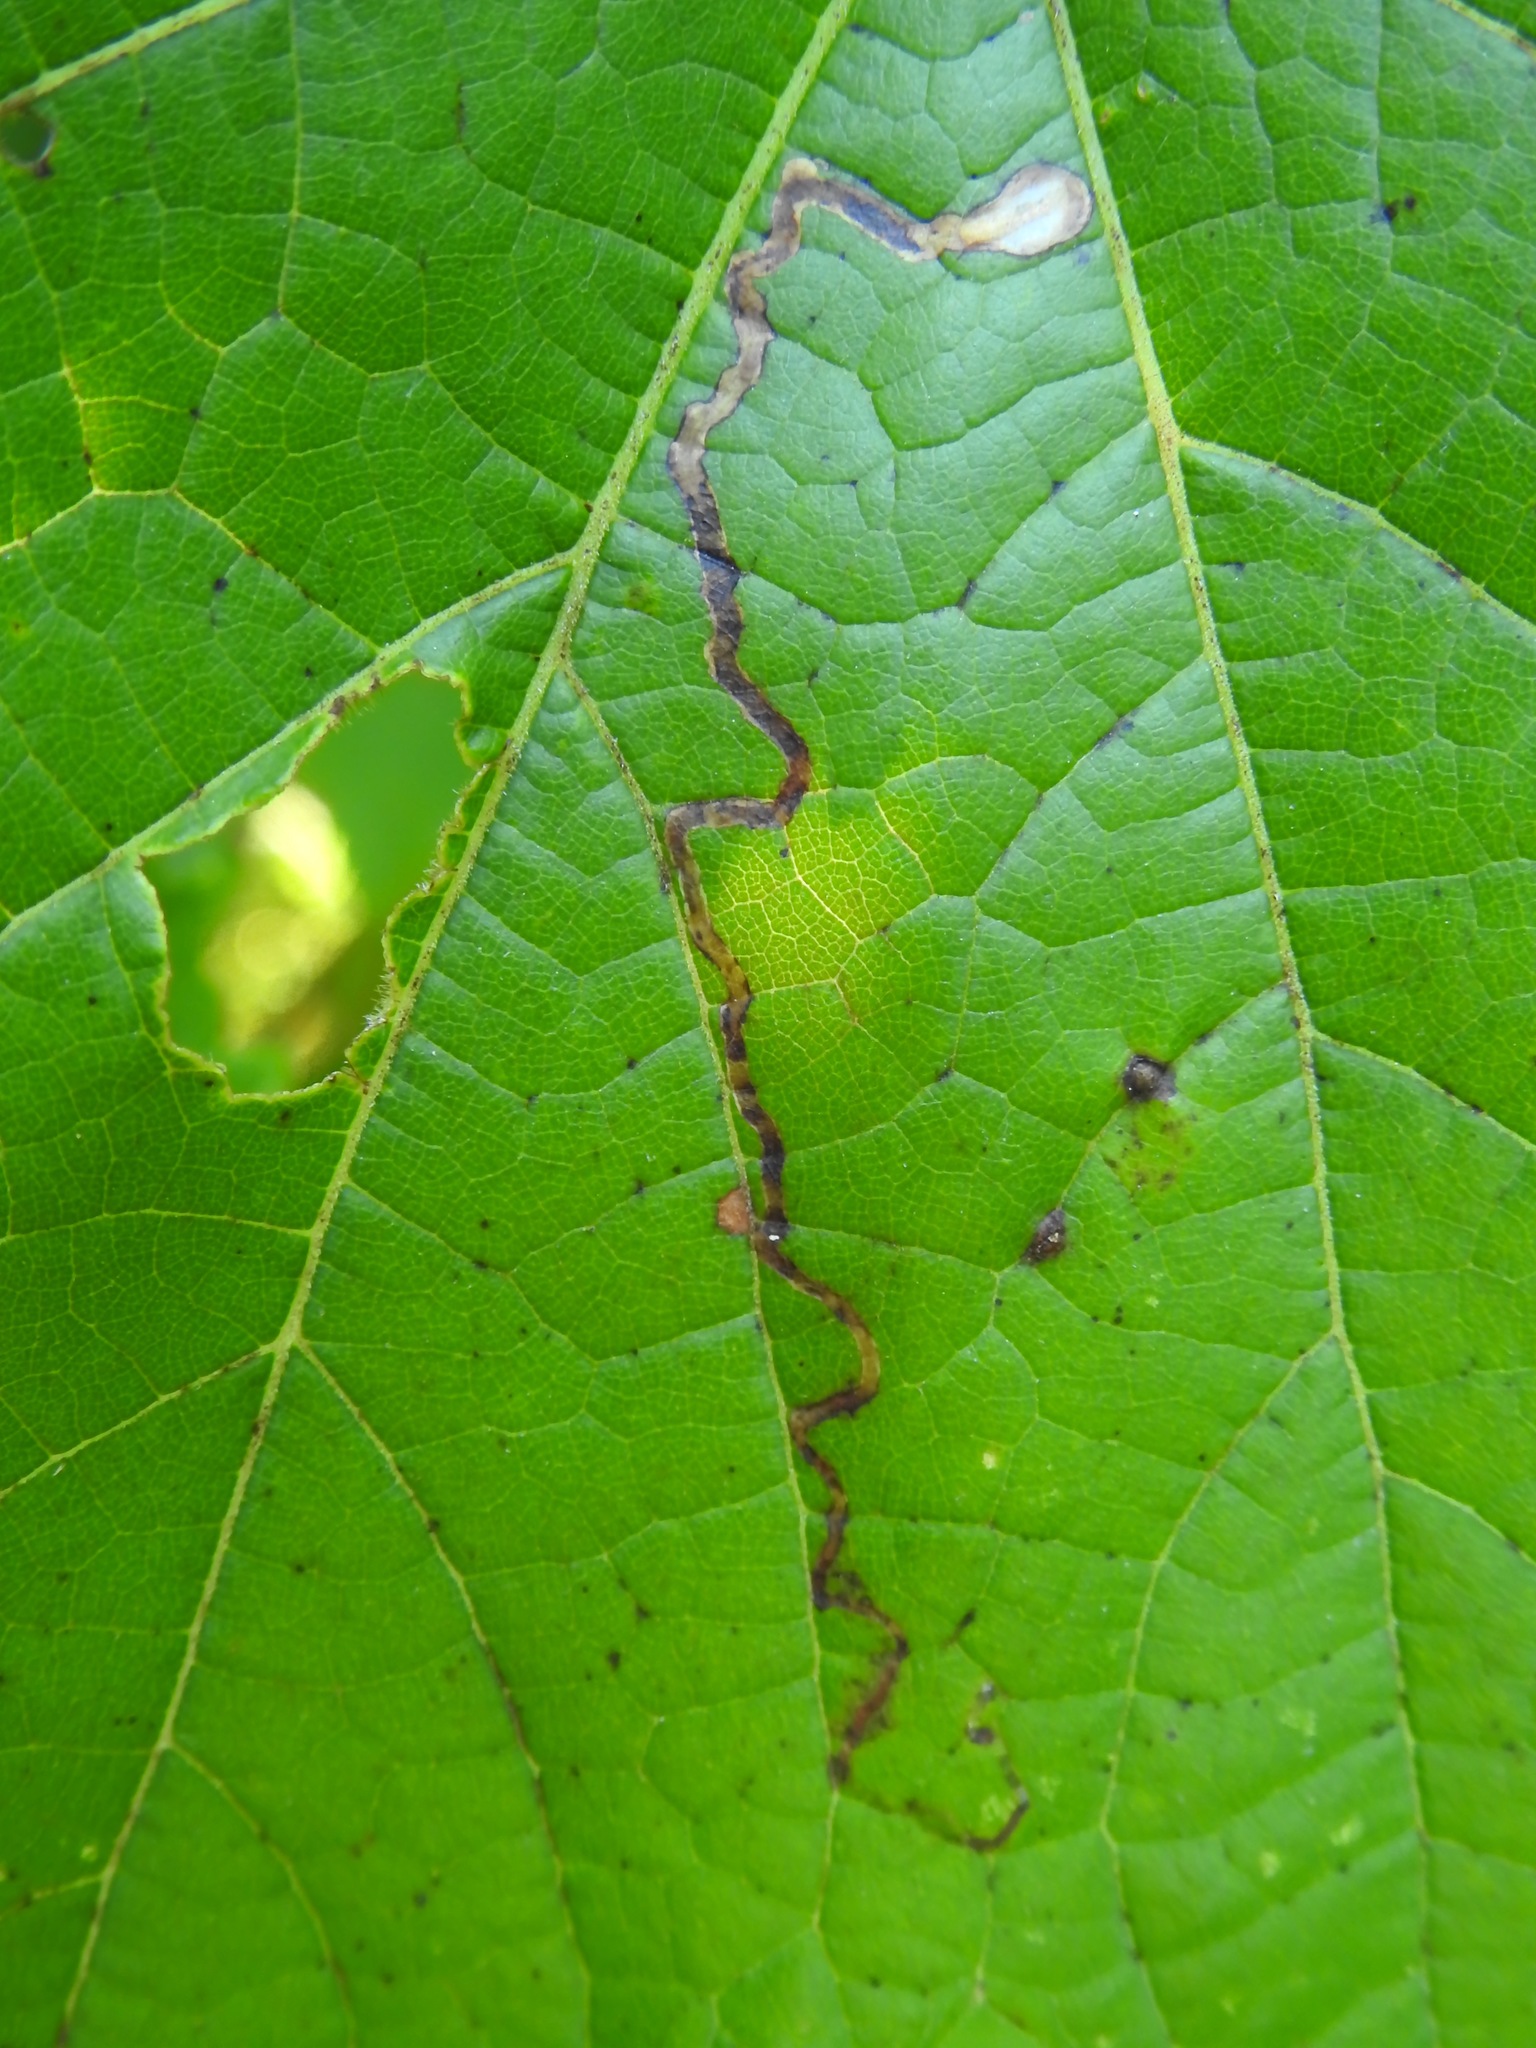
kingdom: Animalia
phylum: Arthropoda
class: Insecta
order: Lepidoptera
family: Gracillariidae
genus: Phyllocnistis
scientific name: Phyllocnistis vitifoliella
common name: Grape leaf-miner moth
